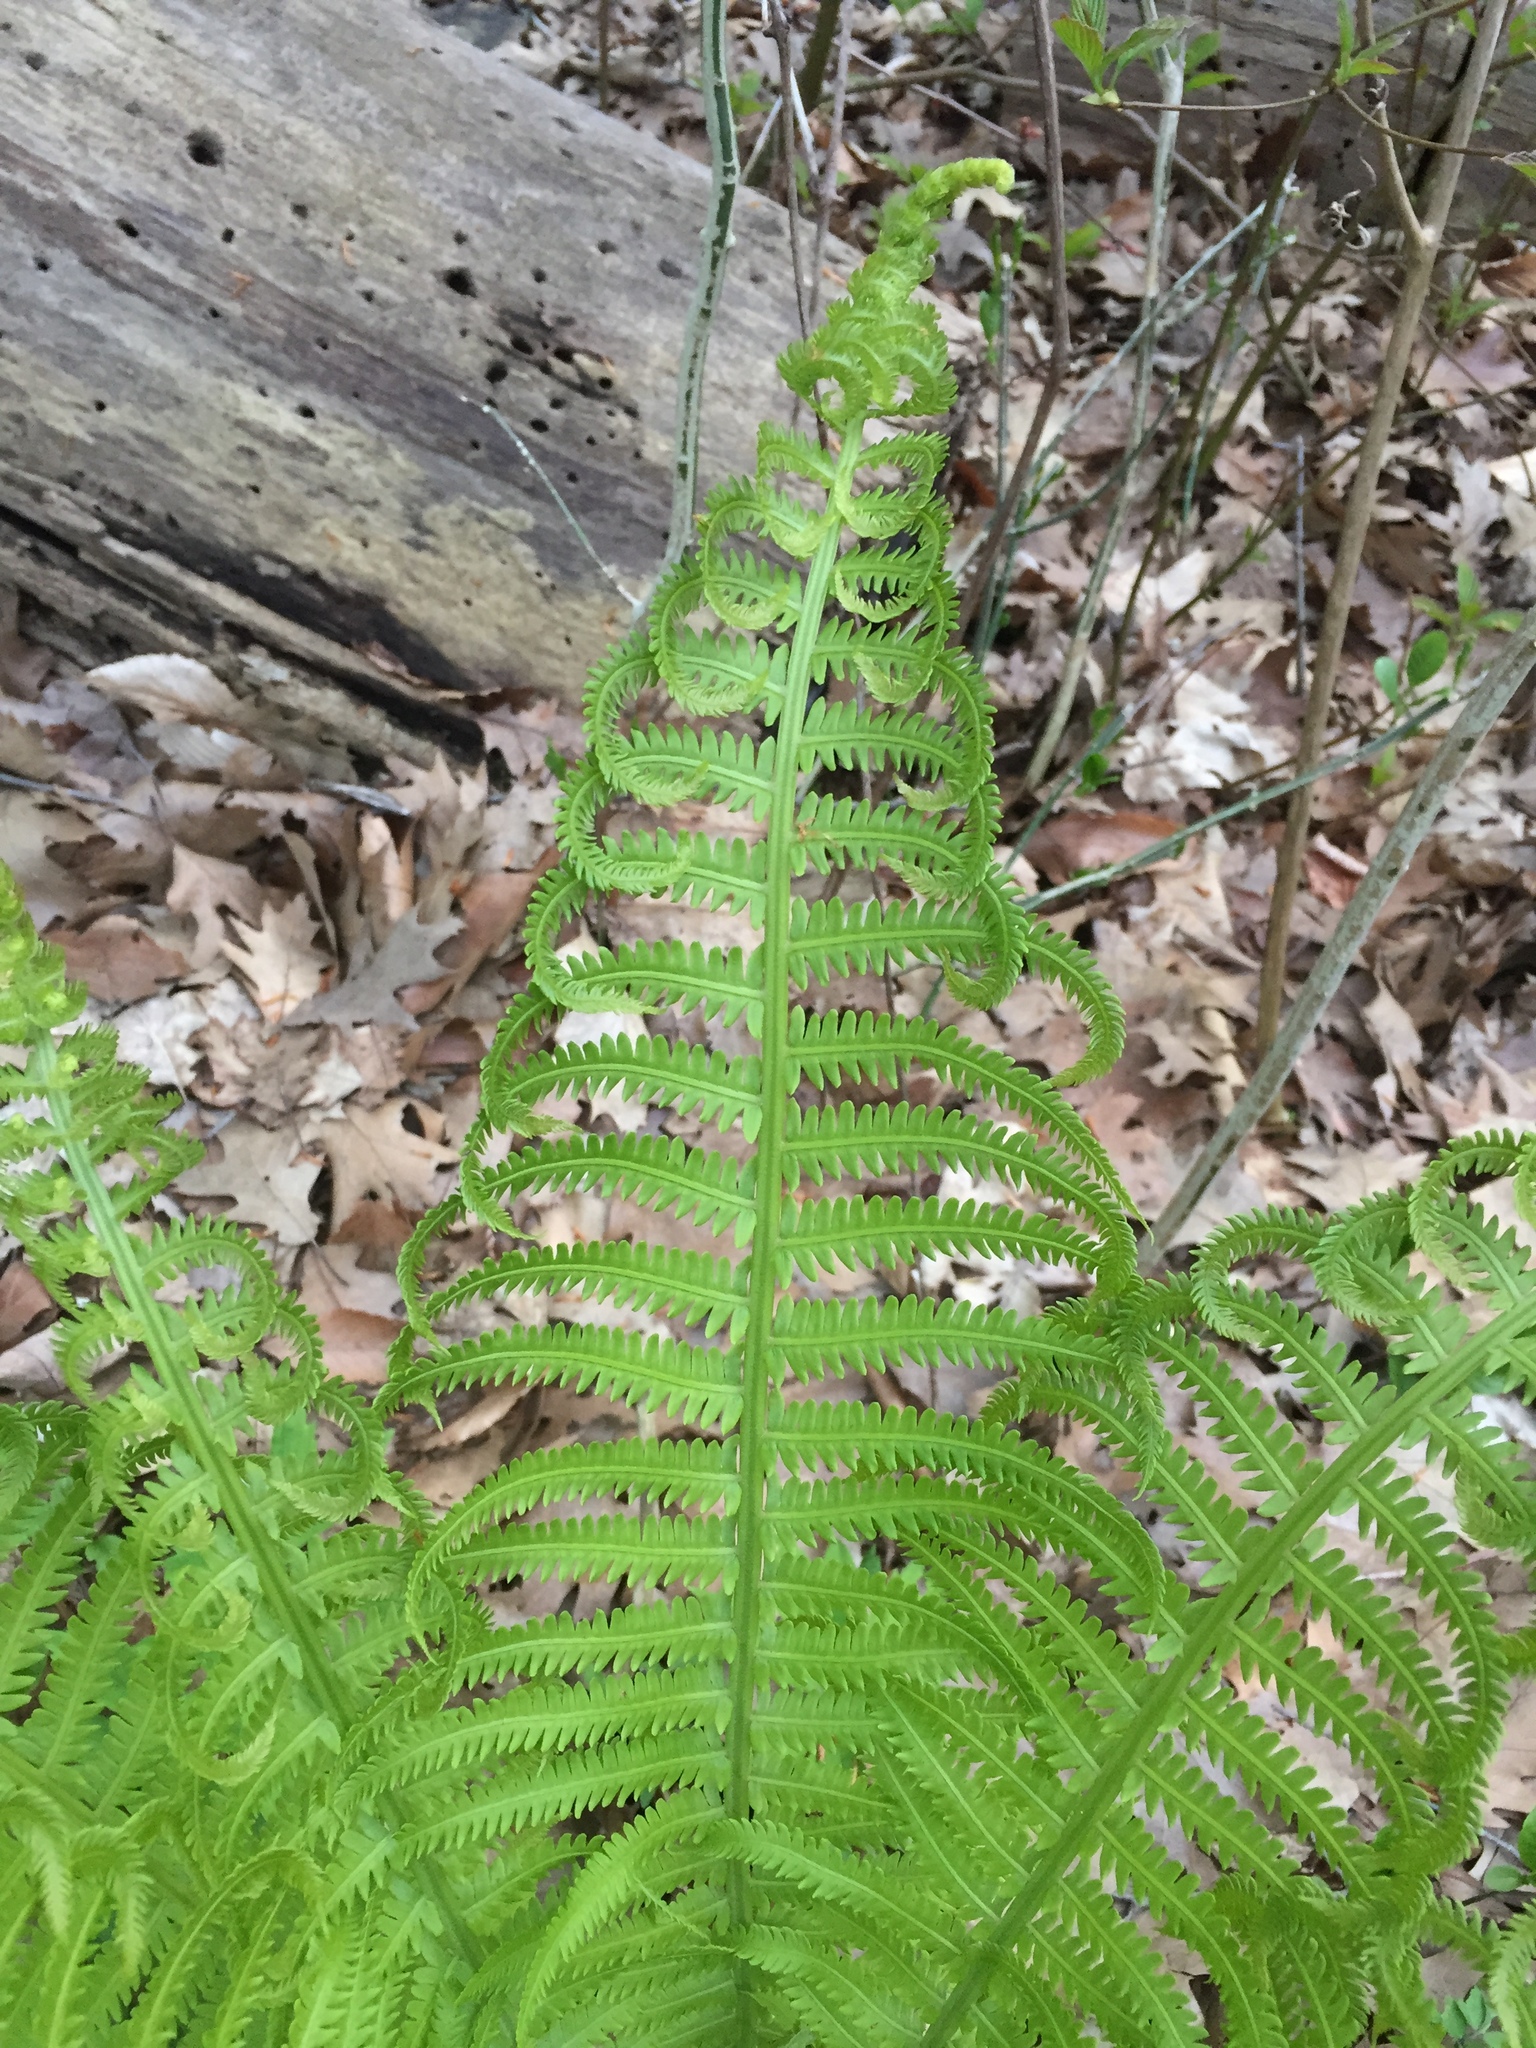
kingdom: Plantae
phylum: Tracheophyta
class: Polypodiopsida
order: Polypodiales
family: Onocleaceae
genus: Matteuccia
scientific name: Matteuccia struthiopteris
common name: Ostrich fern
